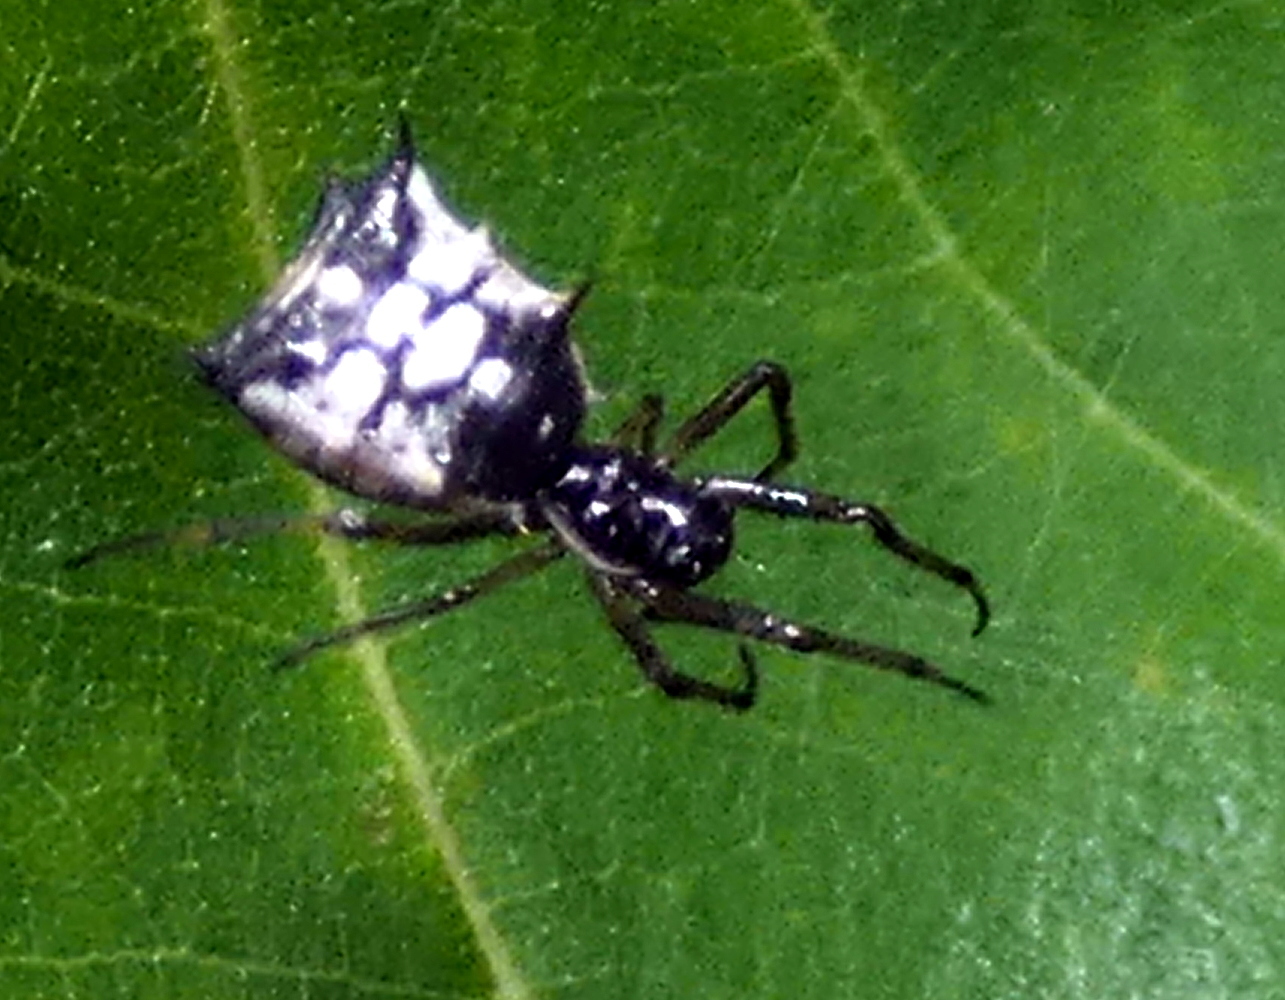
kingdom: Animalia
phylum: Arthropoda
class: Arachnida
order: Araneae
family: Araneidae
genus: Micrathena
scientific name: Micrathena picta
